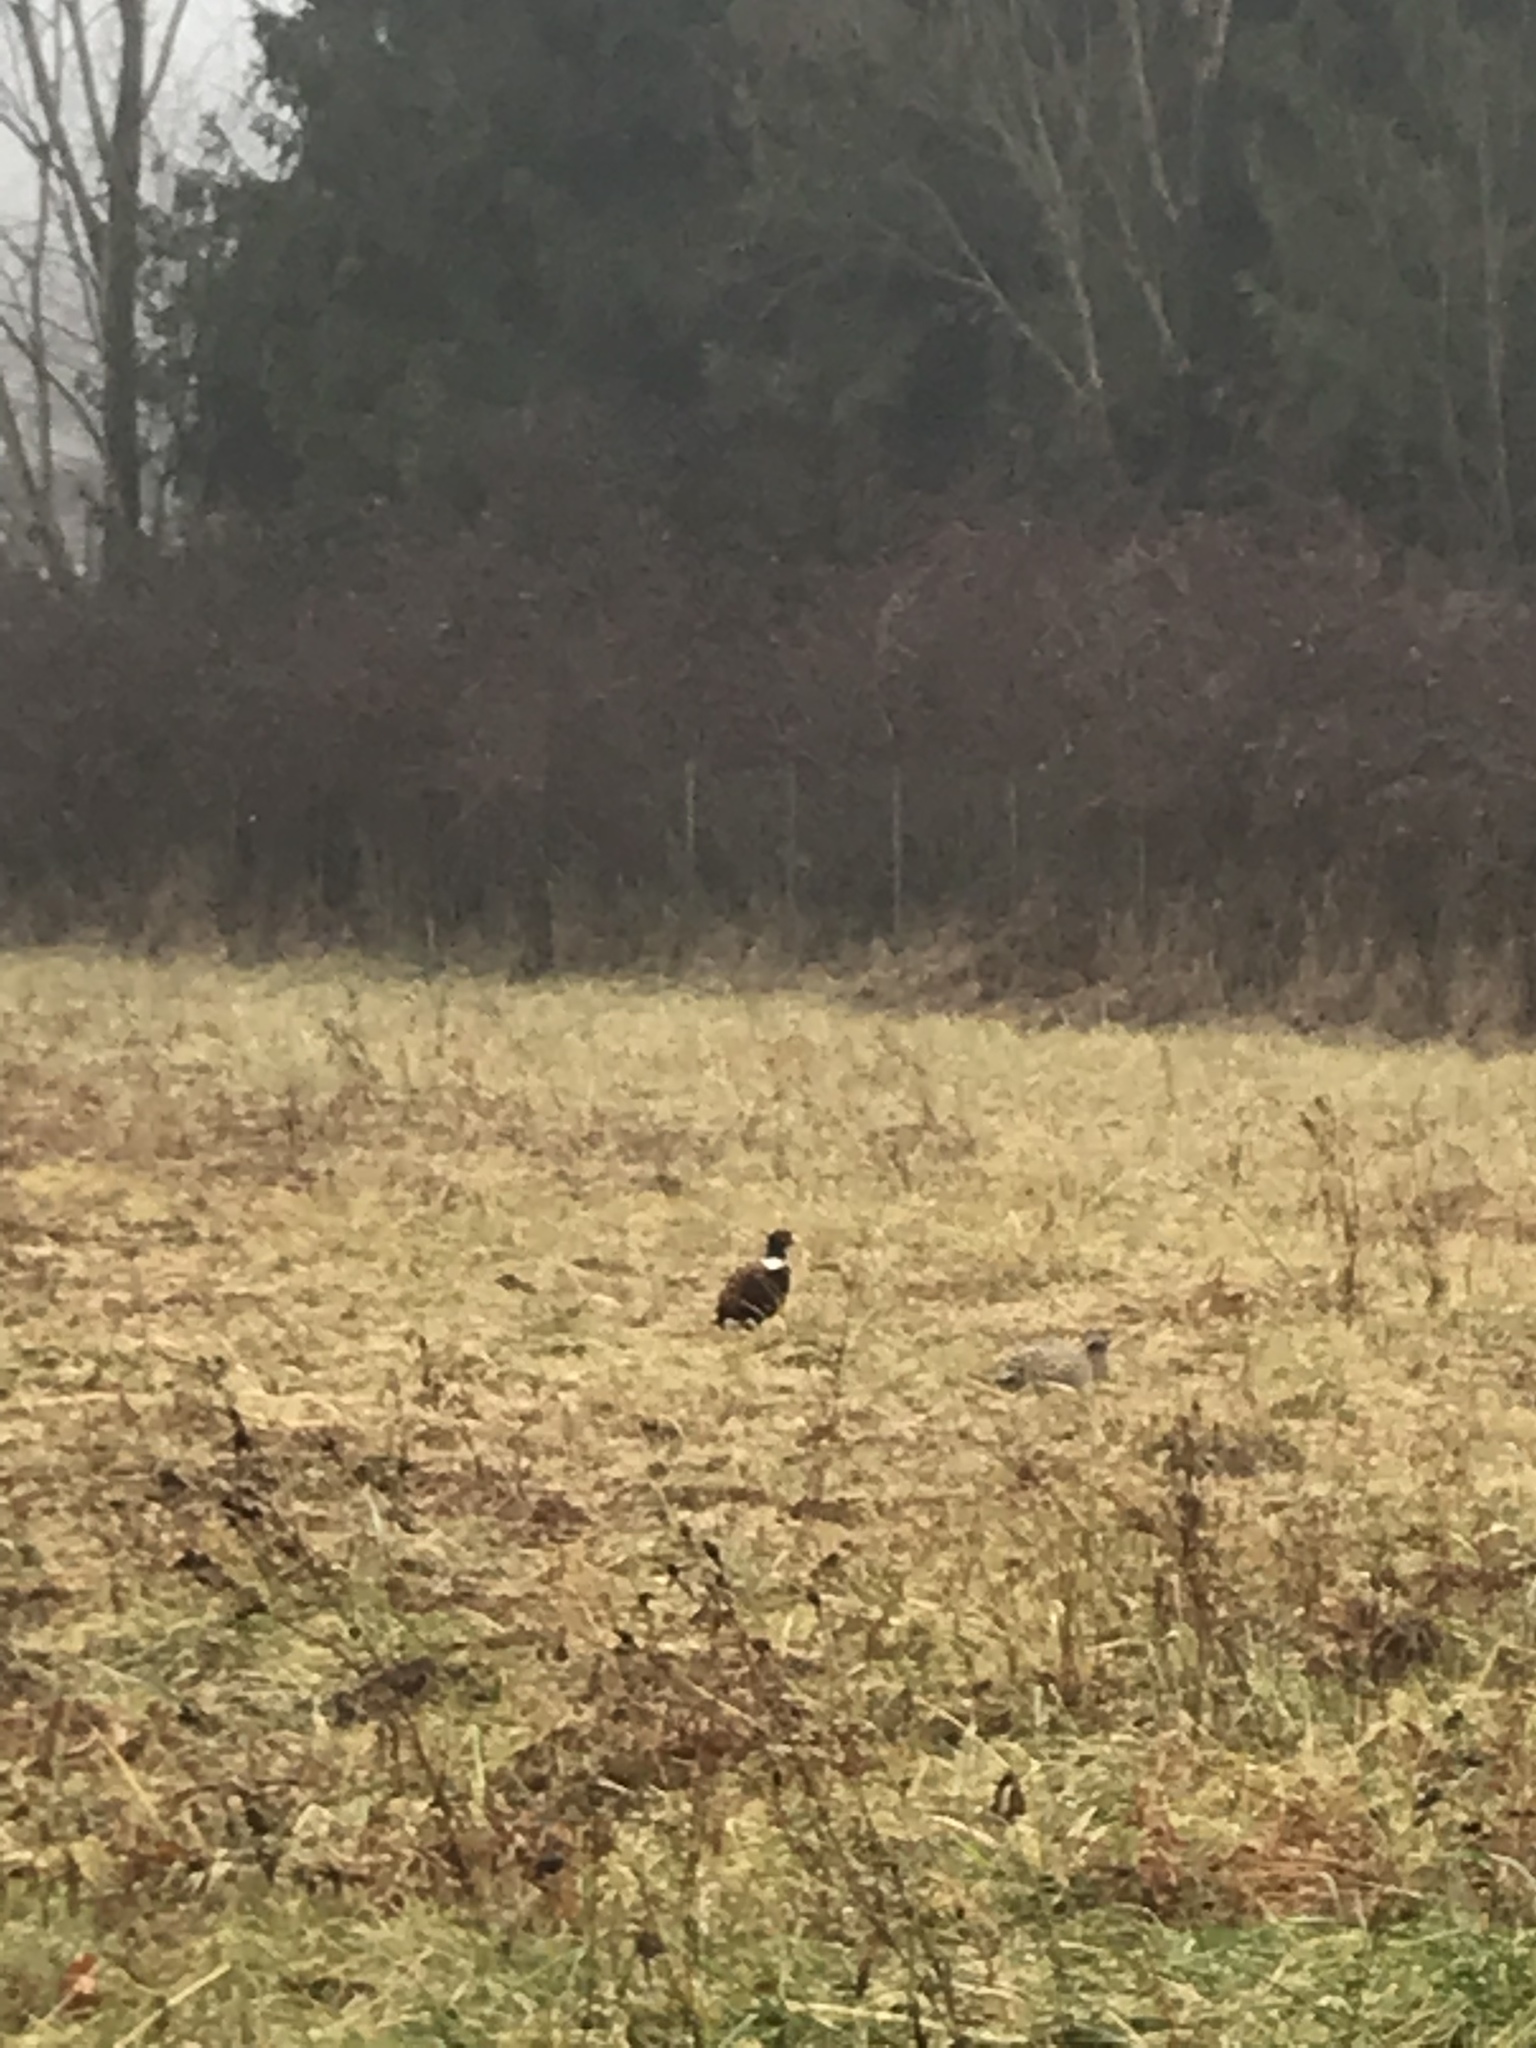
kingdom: Animalia
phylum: Chordata
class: Aves
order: Galliformes
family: Phasianidae
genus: Phasianus
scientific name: Phasianus colchicus
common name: Common pheasant
